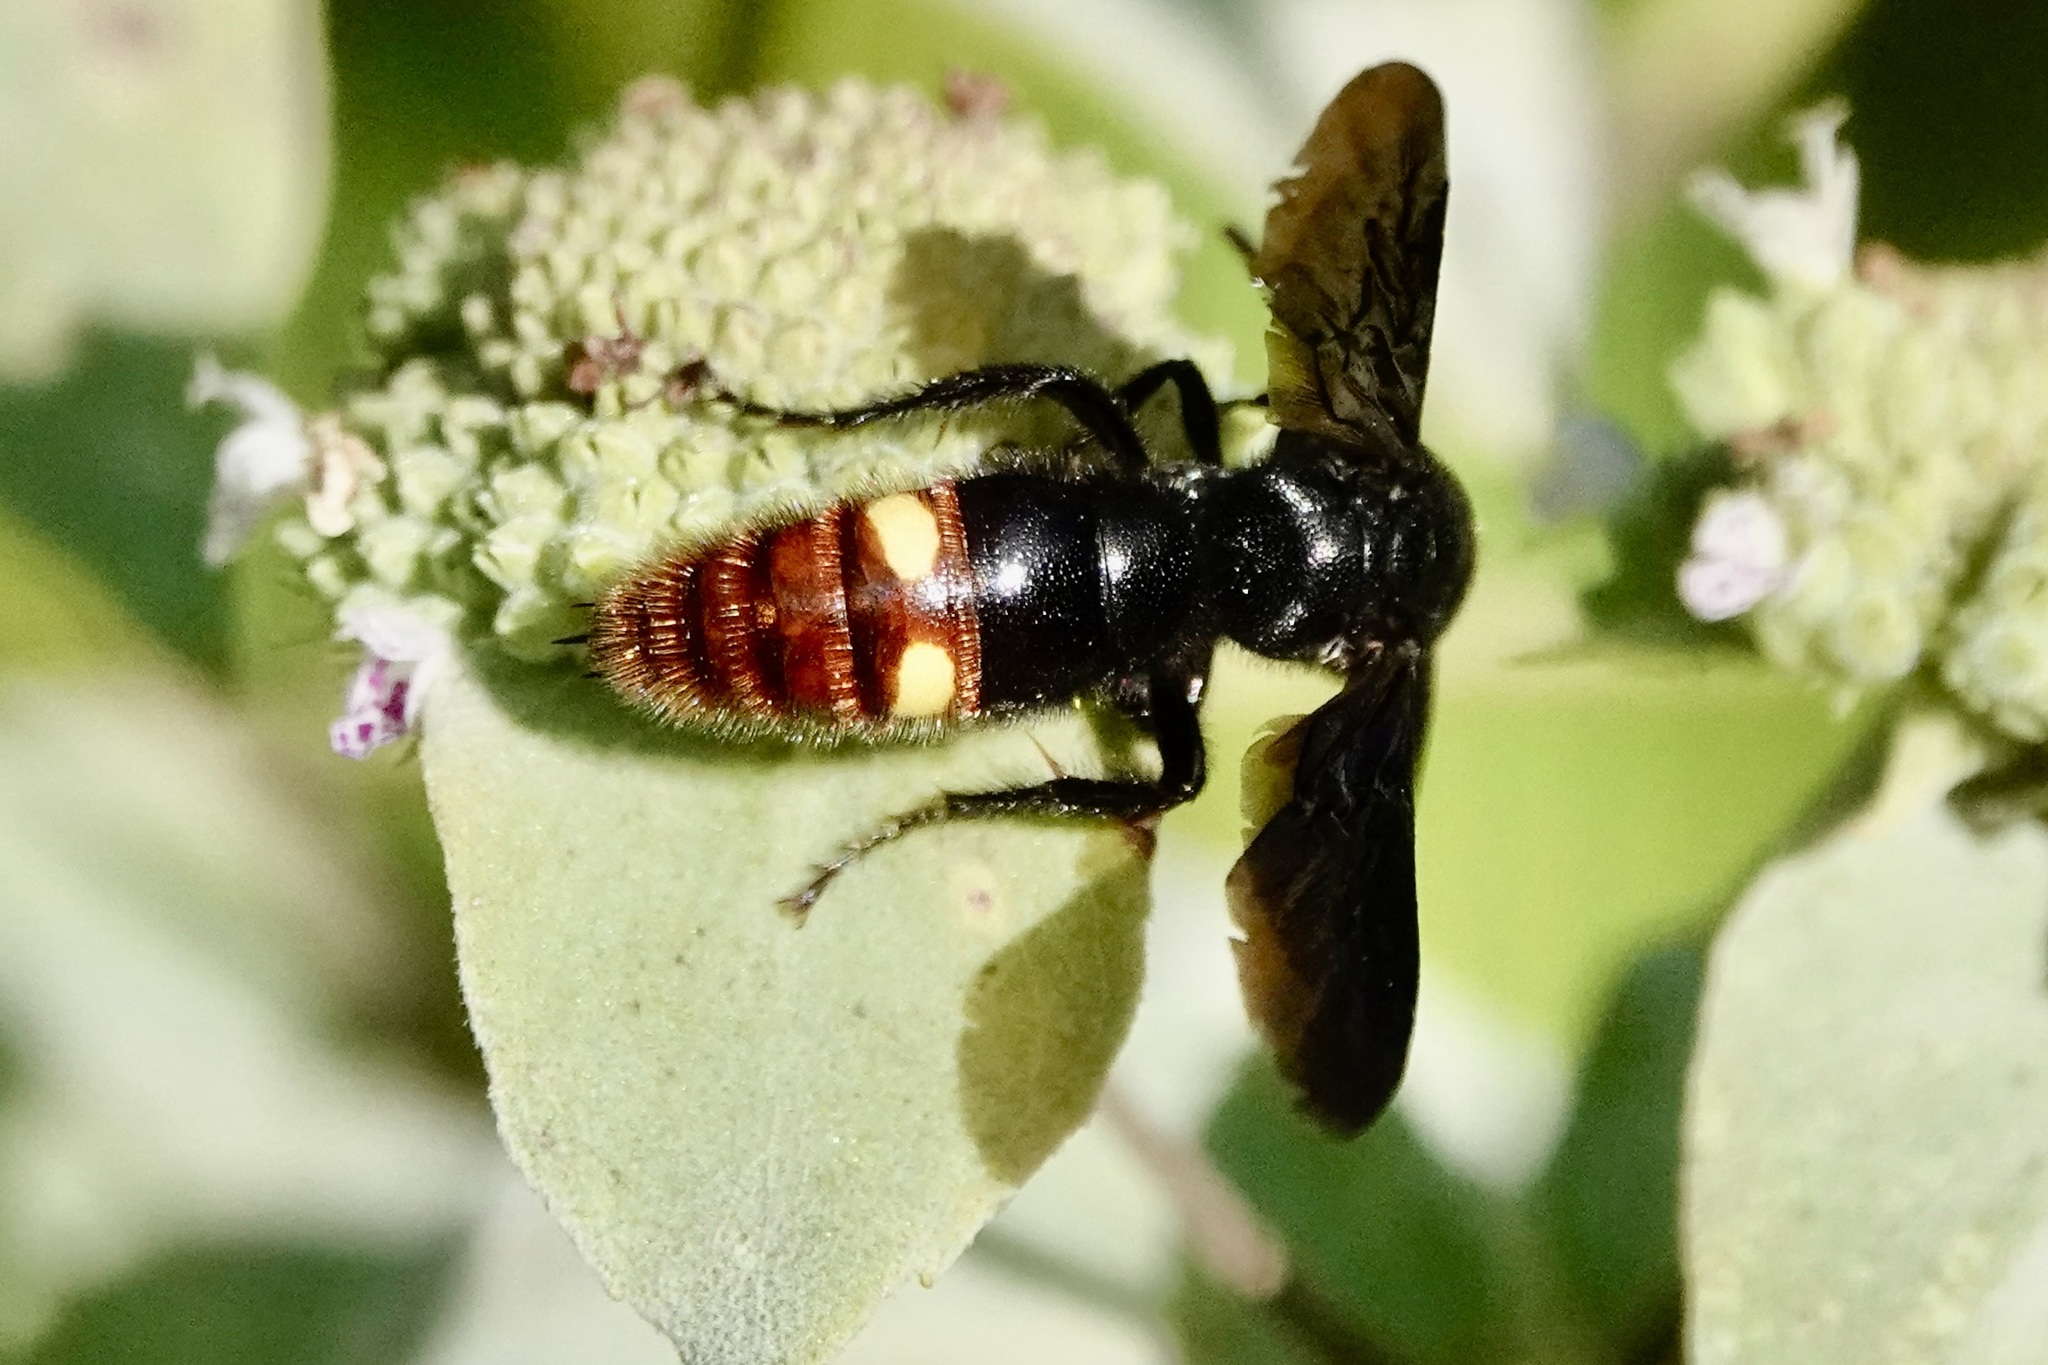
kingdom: Animalia
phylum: Arthropoda
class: Insecta
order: Hymenoptera
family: Scoliidae
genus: Scolia
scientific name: Scolia dubia
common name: Blue-winged scoliid wasp
